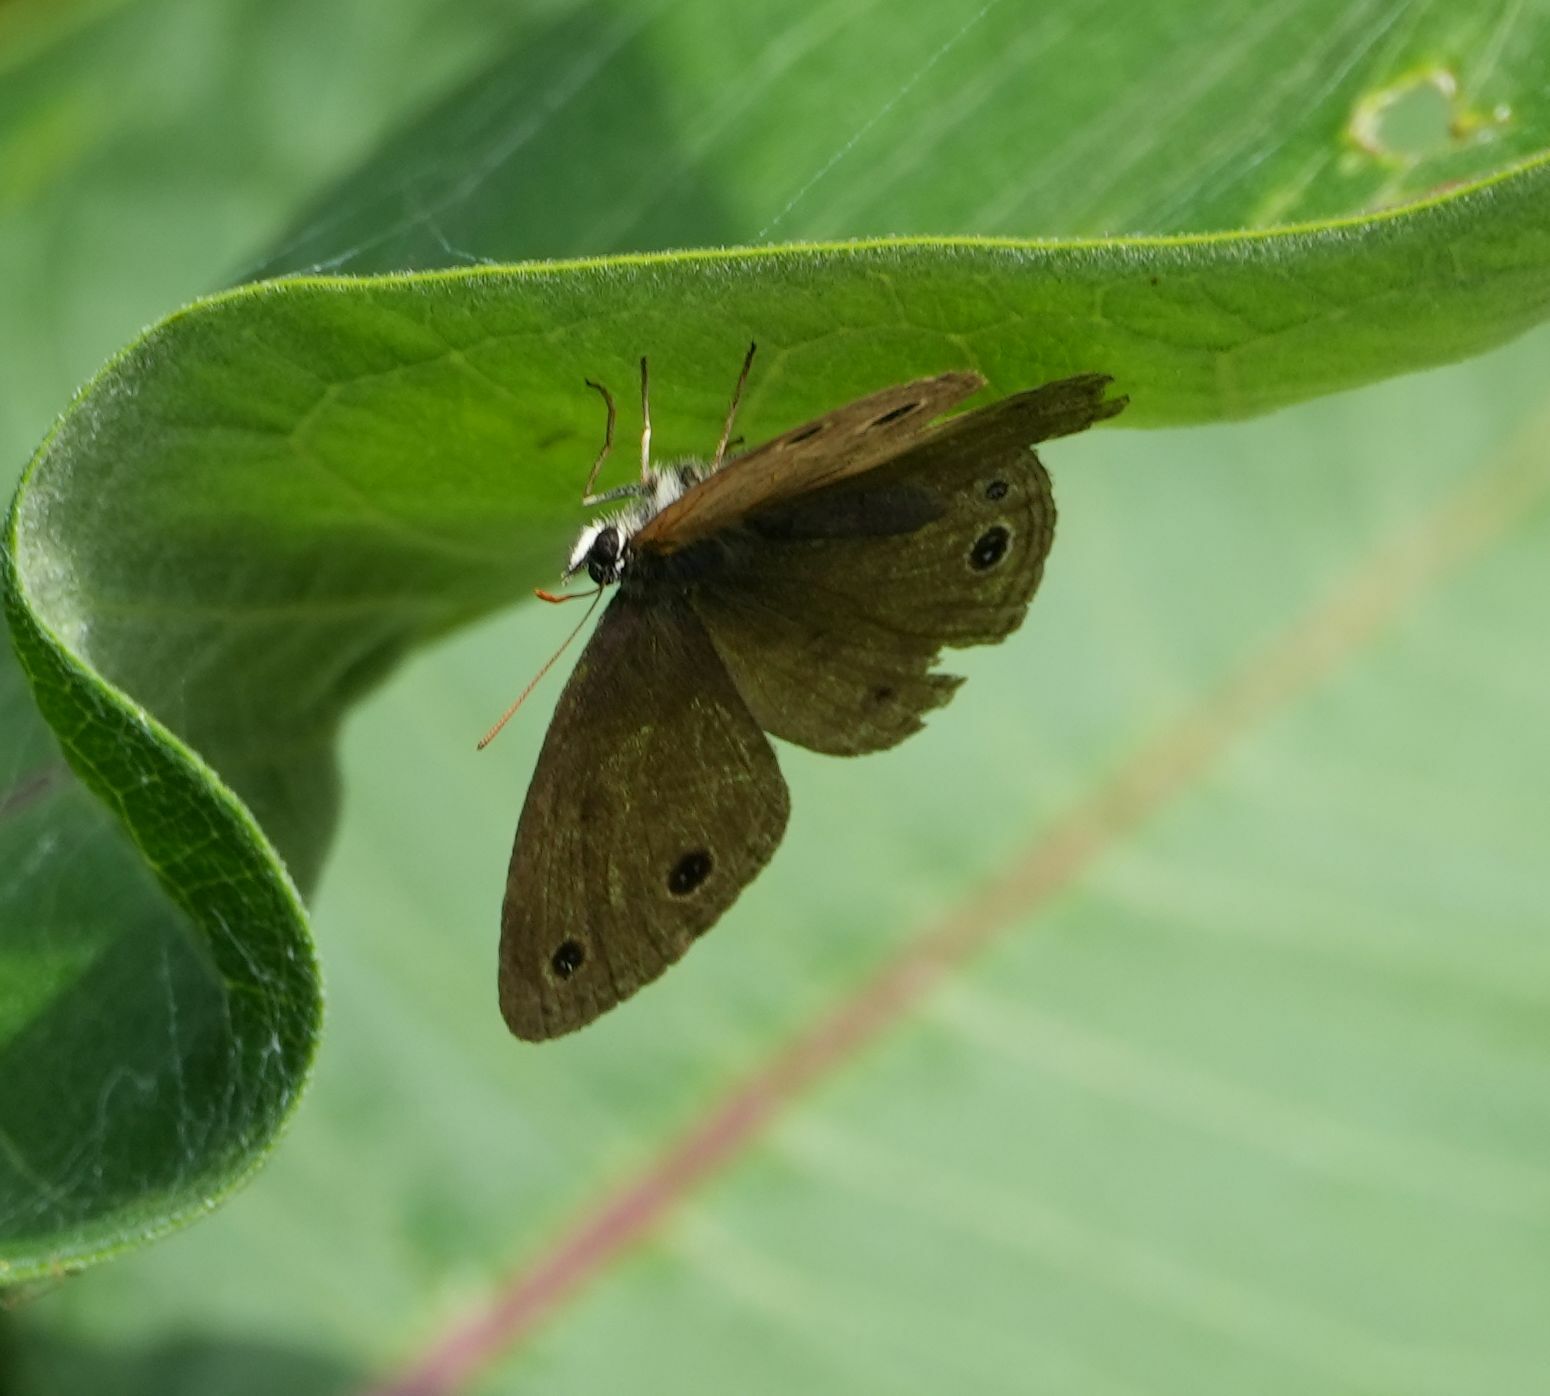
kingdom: Animalia
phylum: Arthropoda
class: Insecta
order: Lepidoptera
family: Nymphalidae
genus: Euptychia
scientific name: Euptychia cymela
